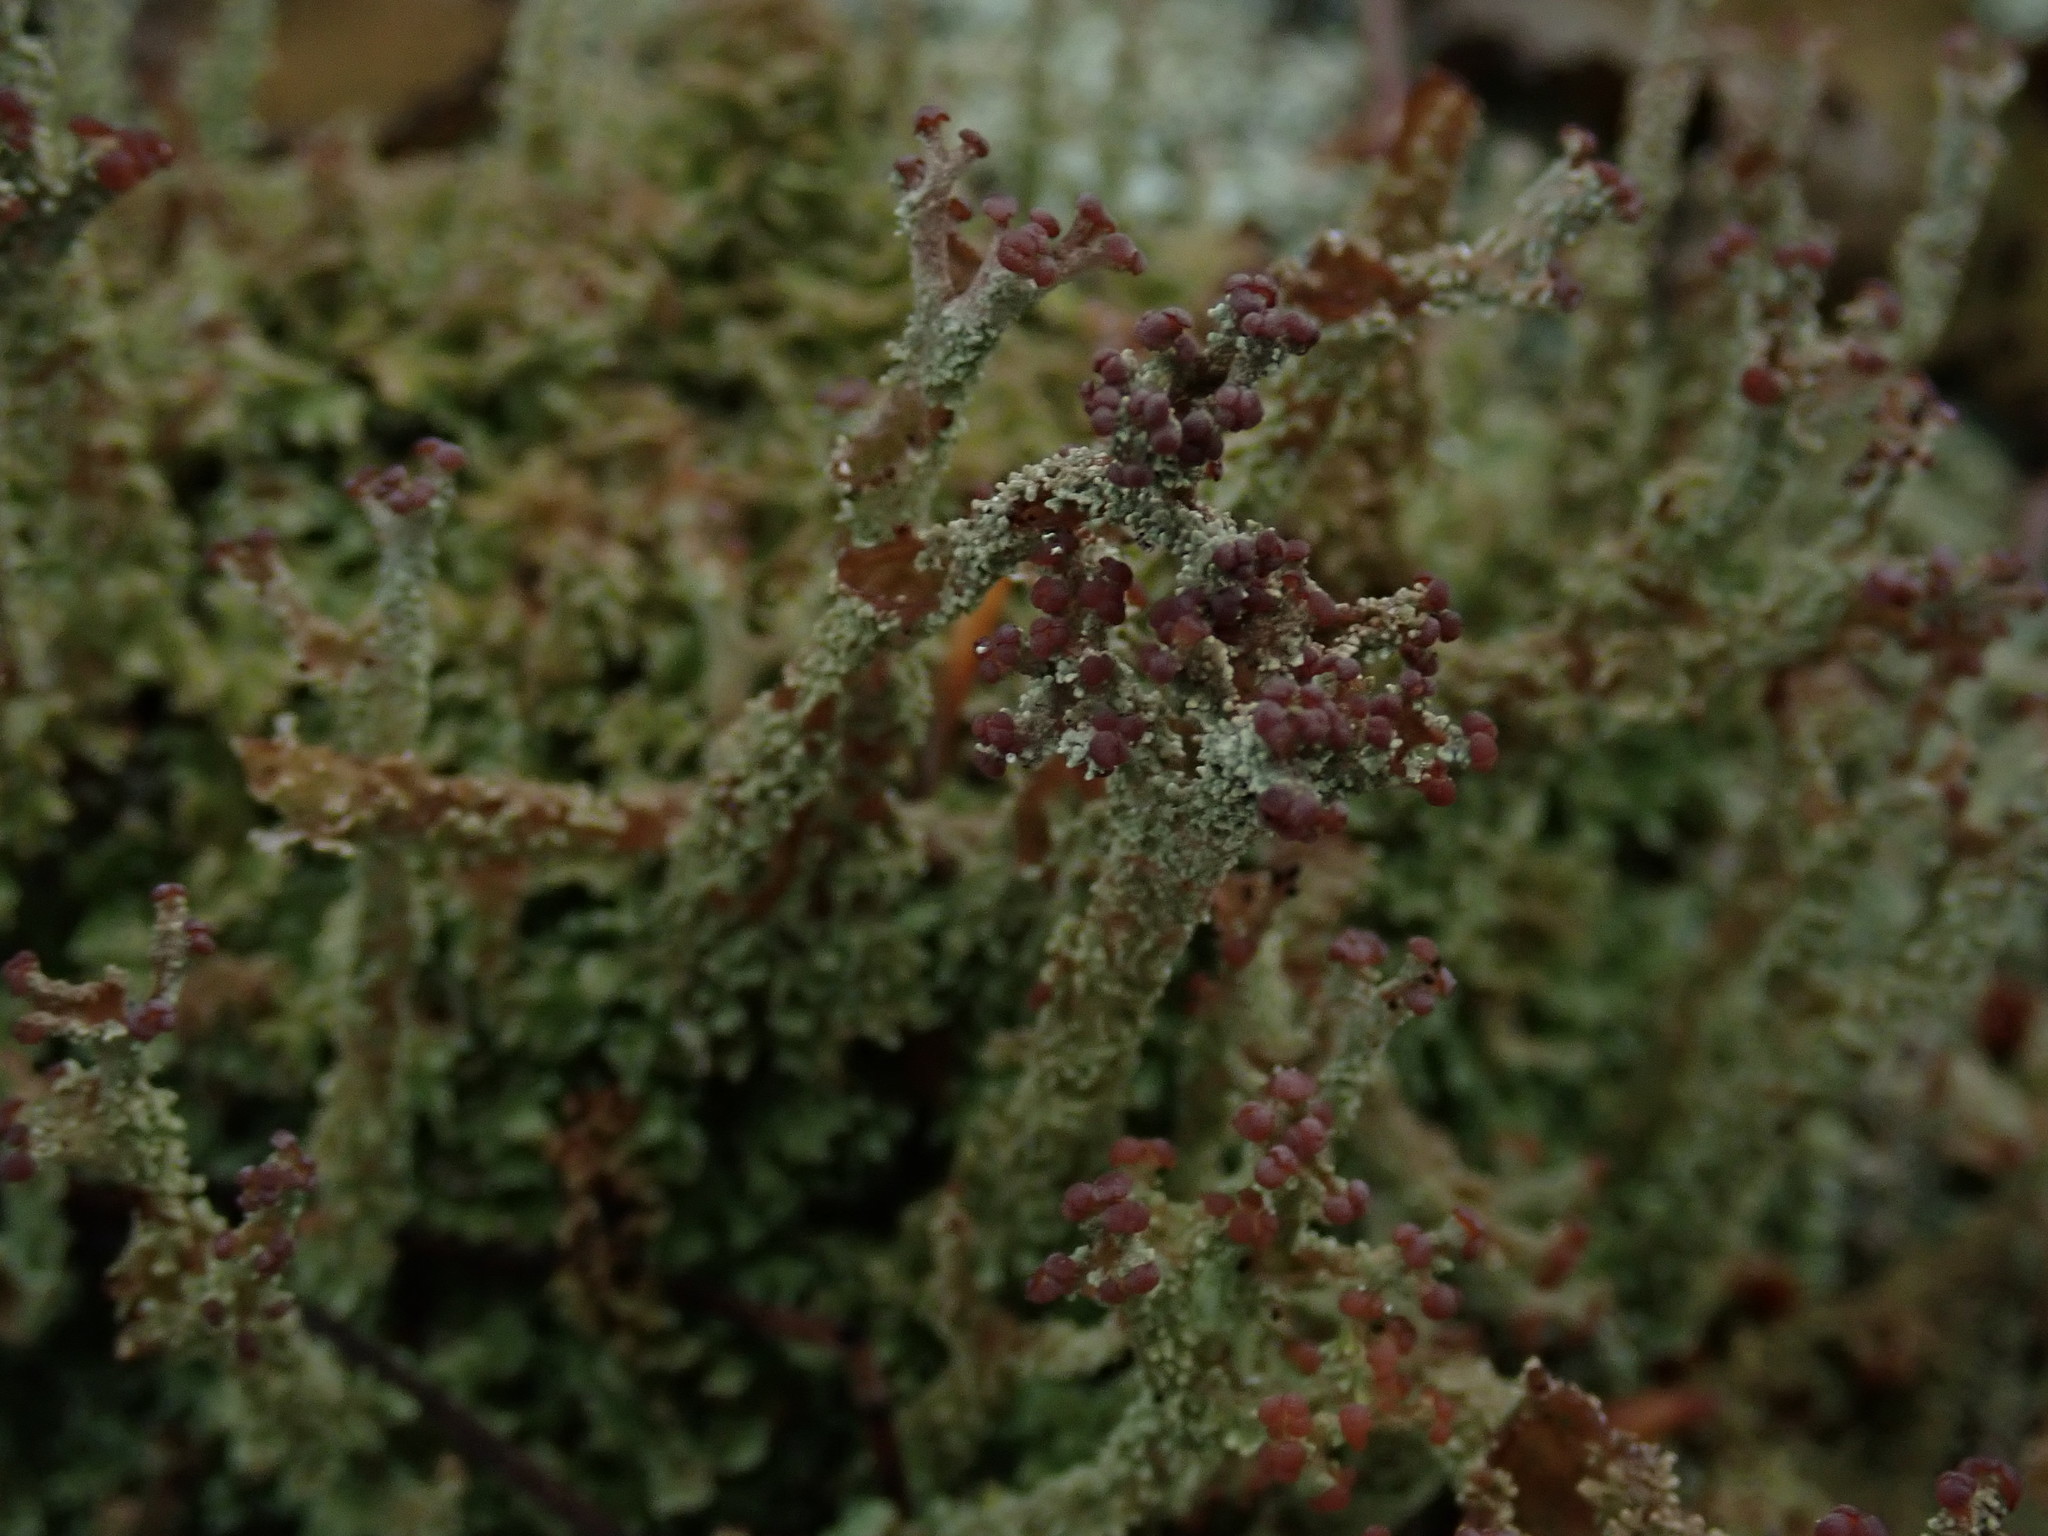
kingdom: Fungi
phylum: Ascomycota
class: Lecanoromycetes
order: Lecanorales
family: Cladoniaceae
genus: Cladonia
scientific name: Cladonia squamosa
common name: Dragon horn
